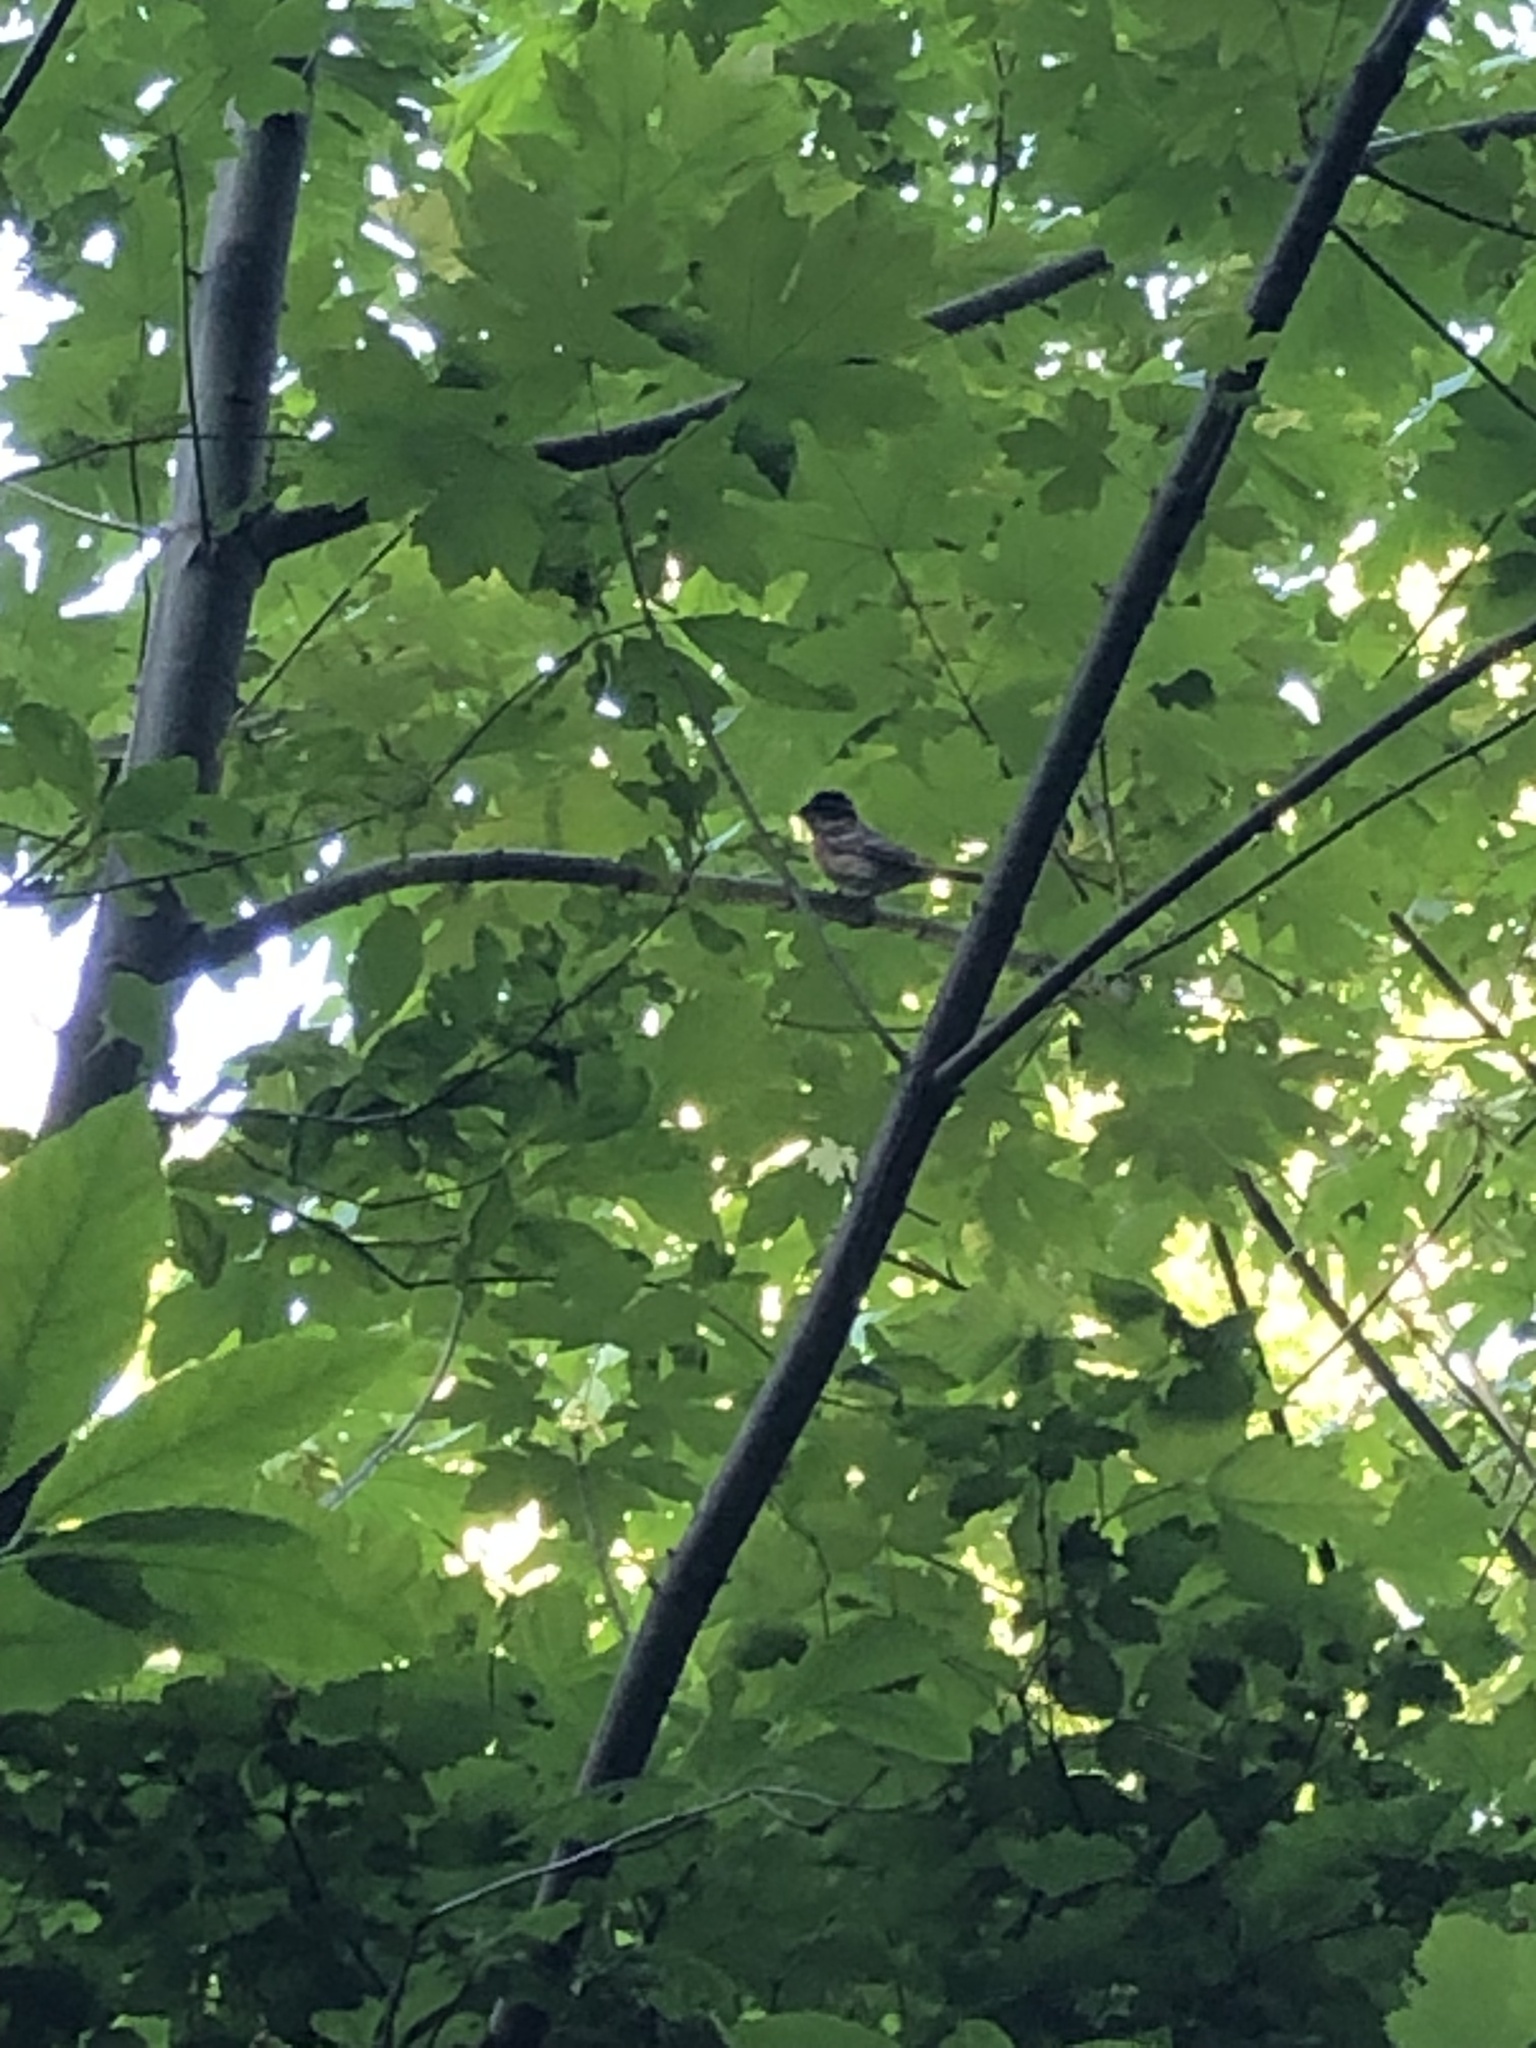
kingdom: Animalia
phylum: Chordata
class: Aves
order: Passeriformes
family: Cardinalidae
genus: Pheucticus
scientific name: Pheucticus melanocephalus
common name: Black-headed grosbeak
